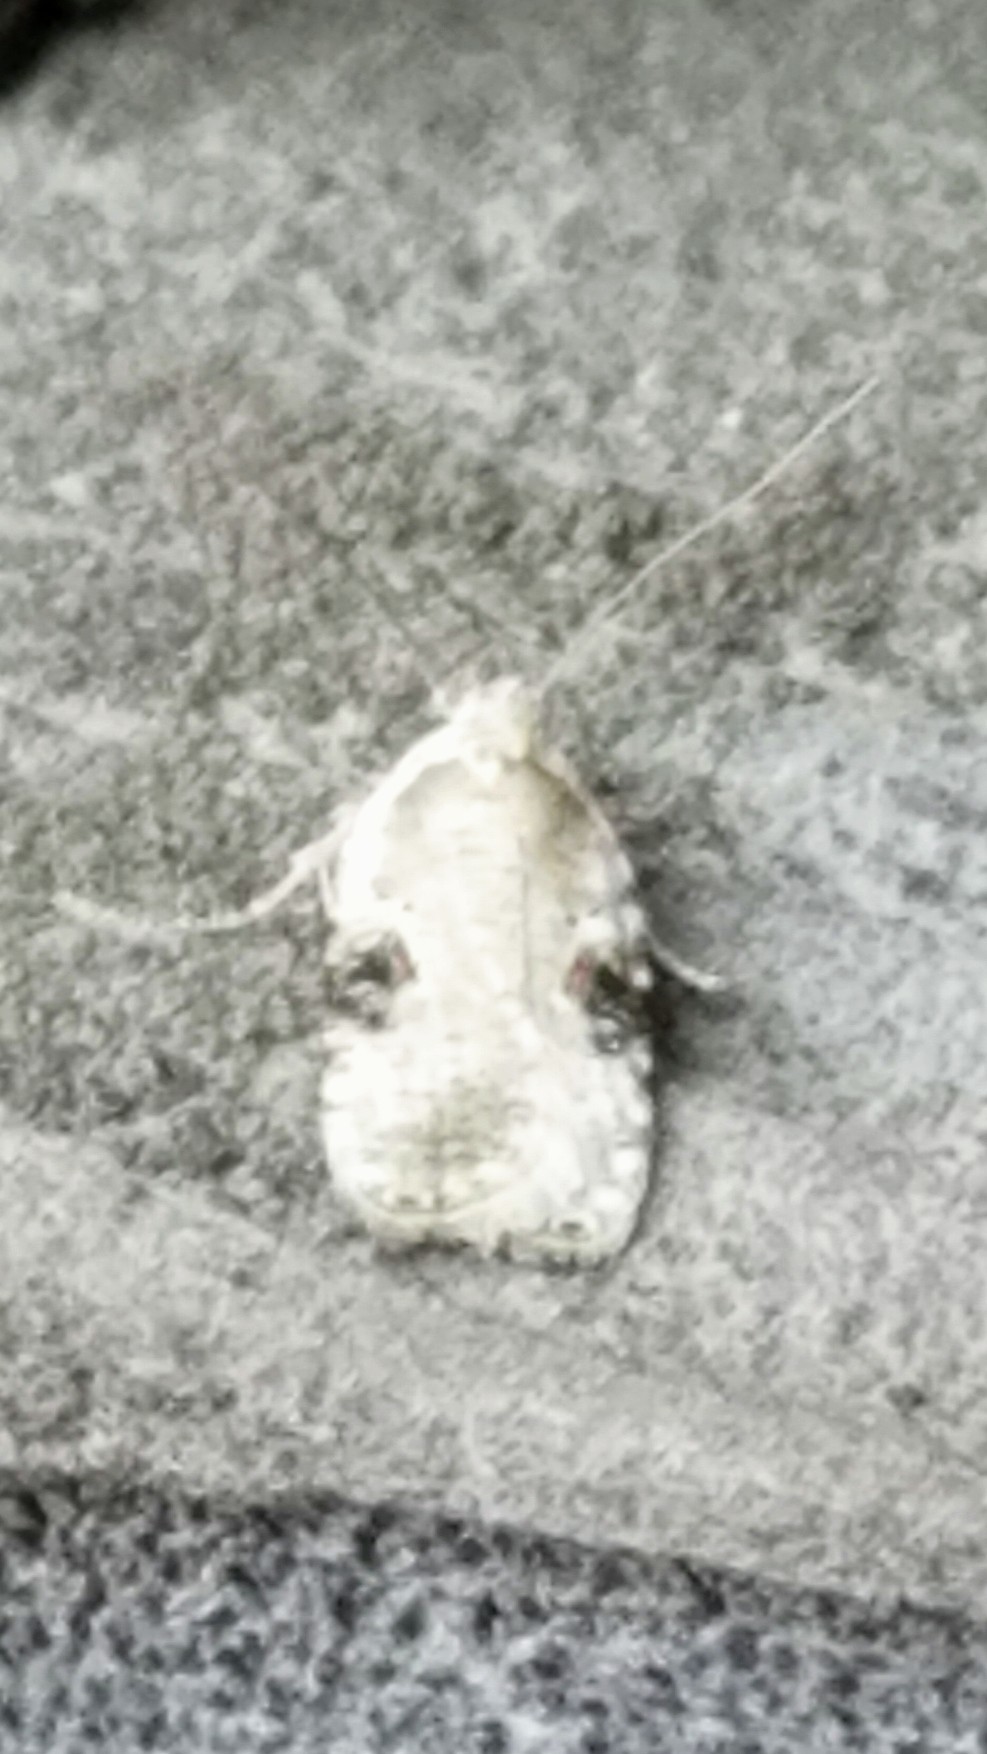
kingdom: Animalia
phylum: Arthropoda
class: Insecta
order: Lepidoptera
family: Depressariidae
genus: Agonopterix
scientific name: Agonopterix alstroemeriana
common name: Moth
